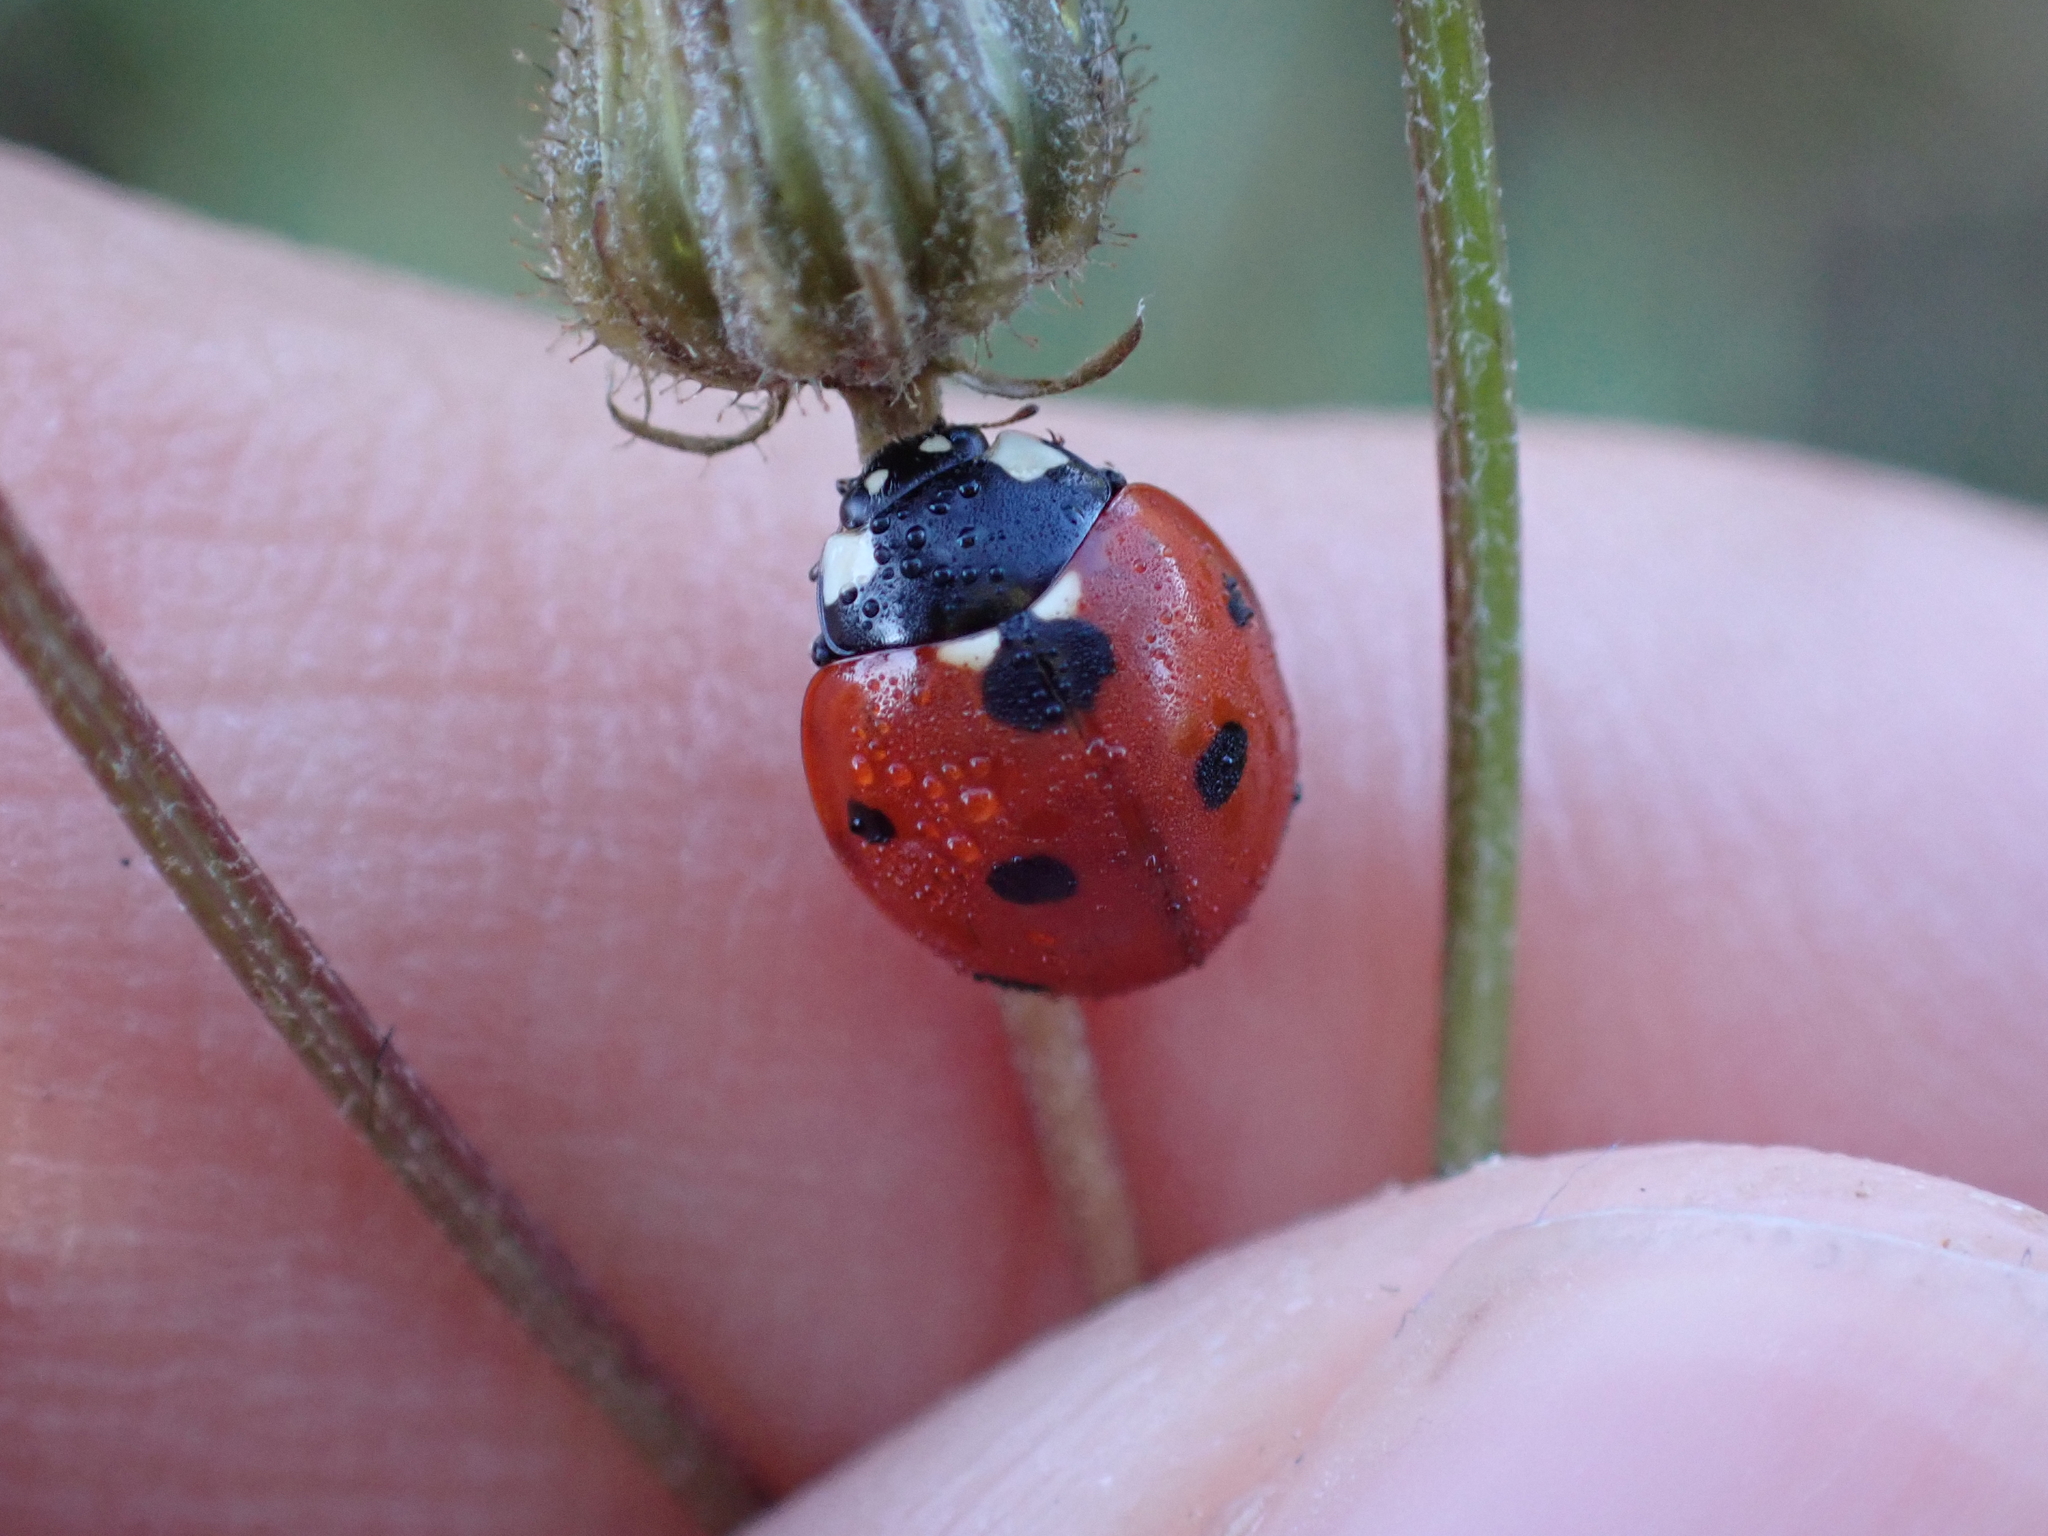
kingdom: Animalia
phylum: Arthropoda
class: Insecta
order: Coleoptera
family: Coccinellidae
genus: Coccinella
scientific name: Coccinella septempunctata
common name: Sevenspotted lady beetle
